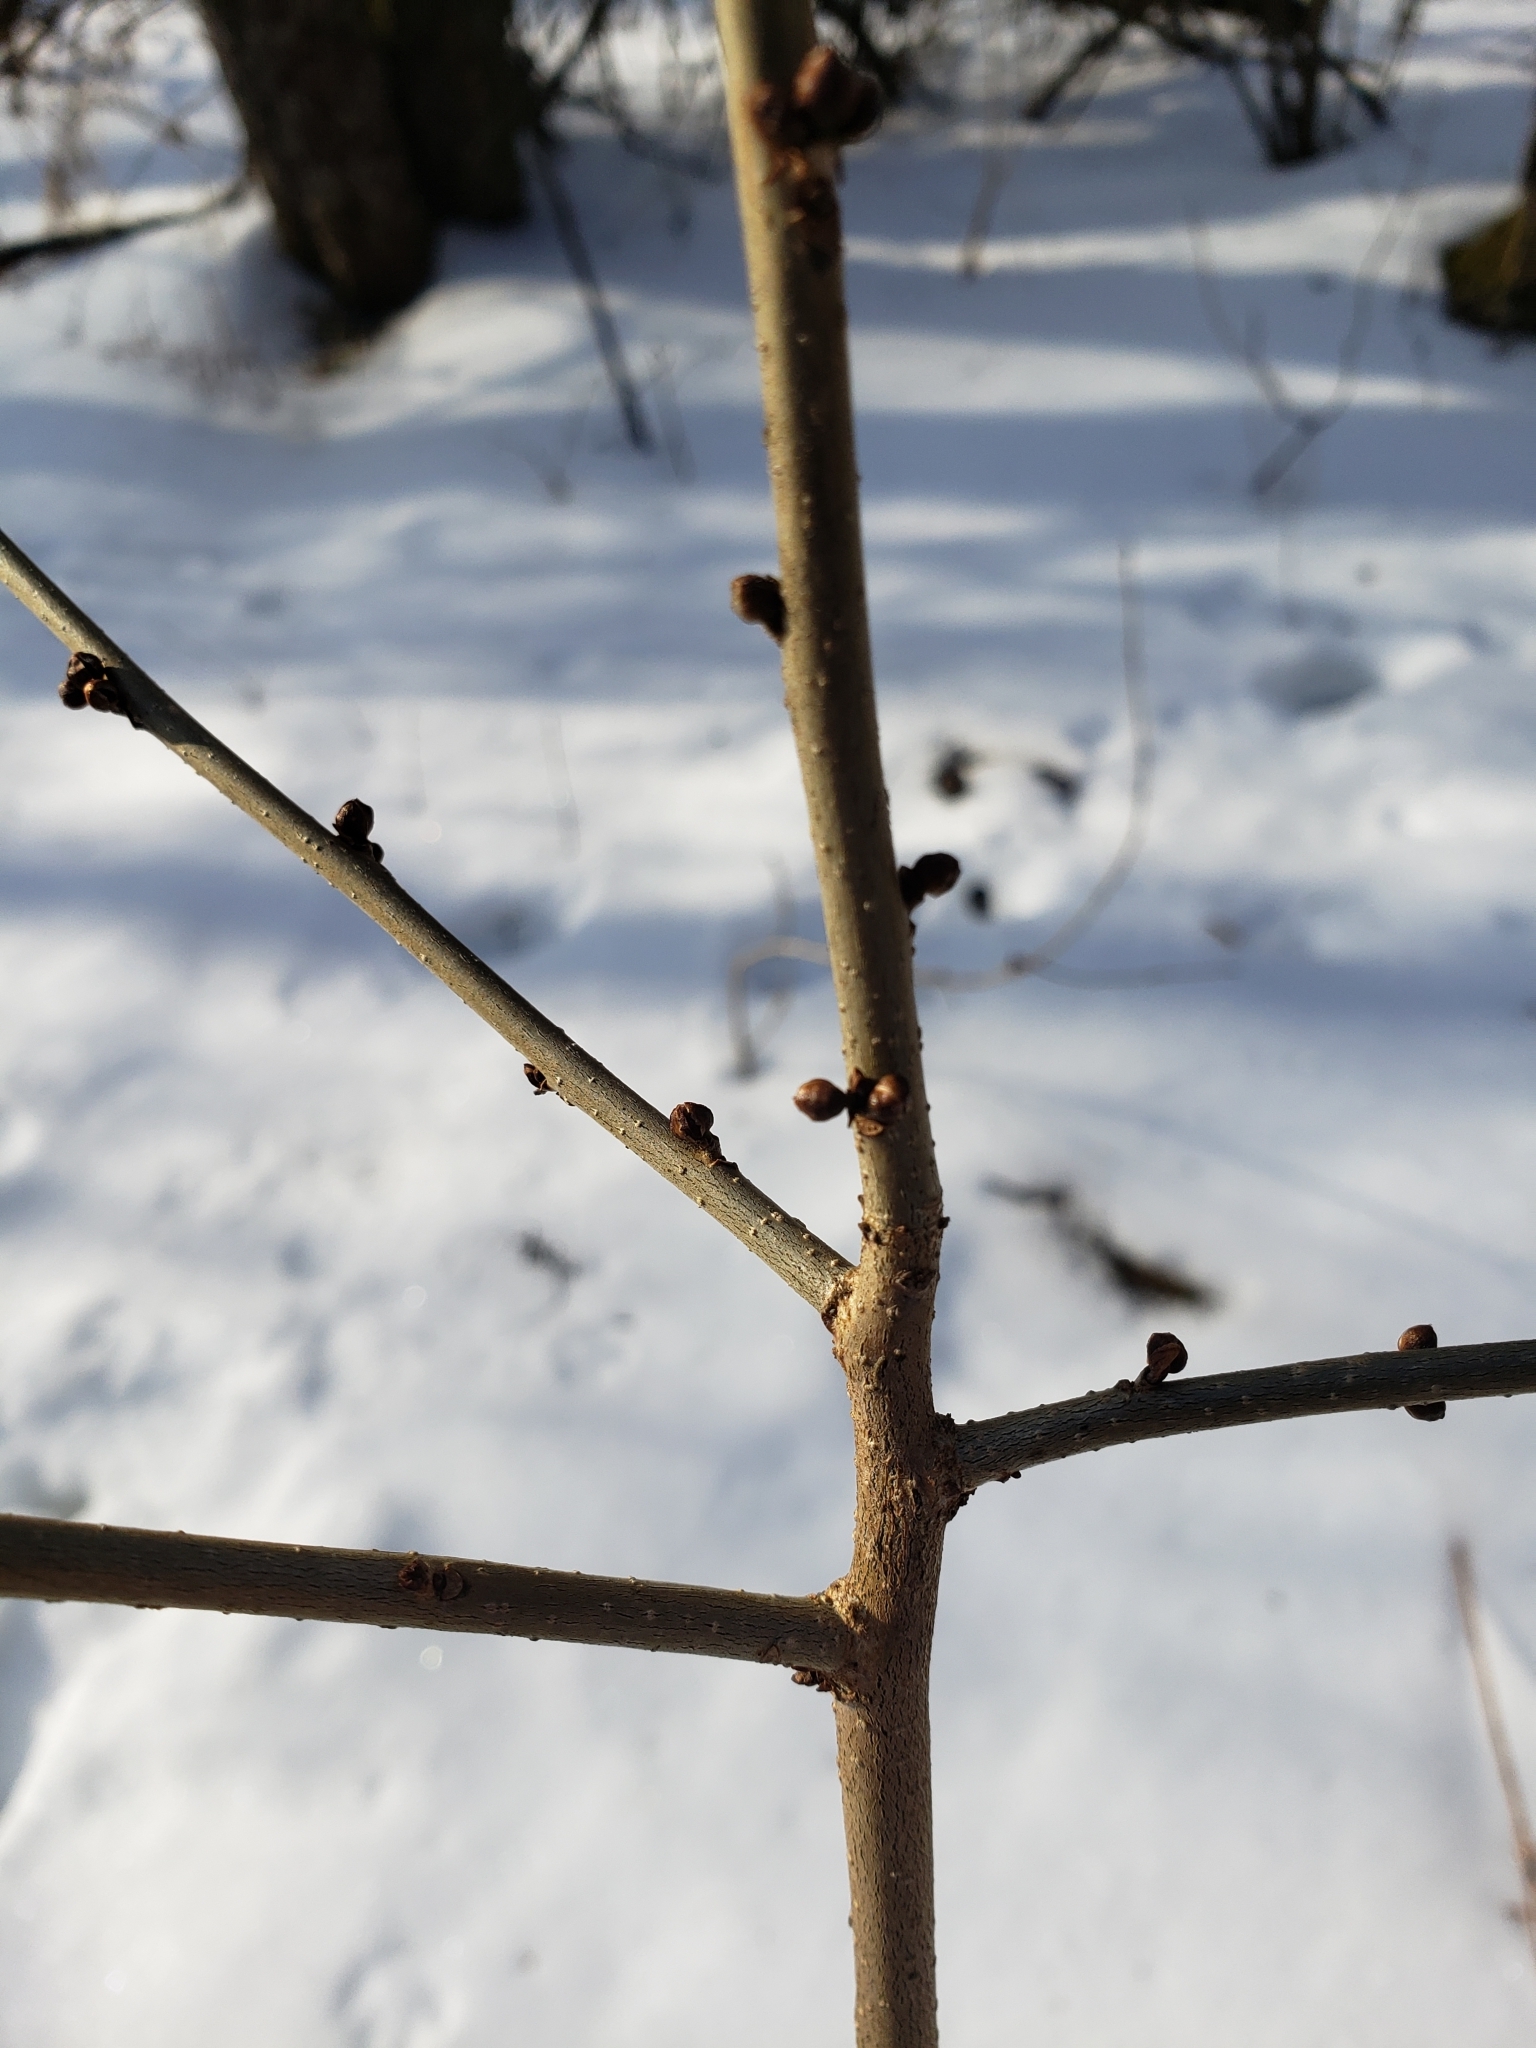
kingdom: Plantae
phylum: Tracheophyta
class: Magnoliopsida
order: Laurales
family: Lauraceae
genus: Lindera
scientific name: Lindera benzoin
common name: Spicebush
